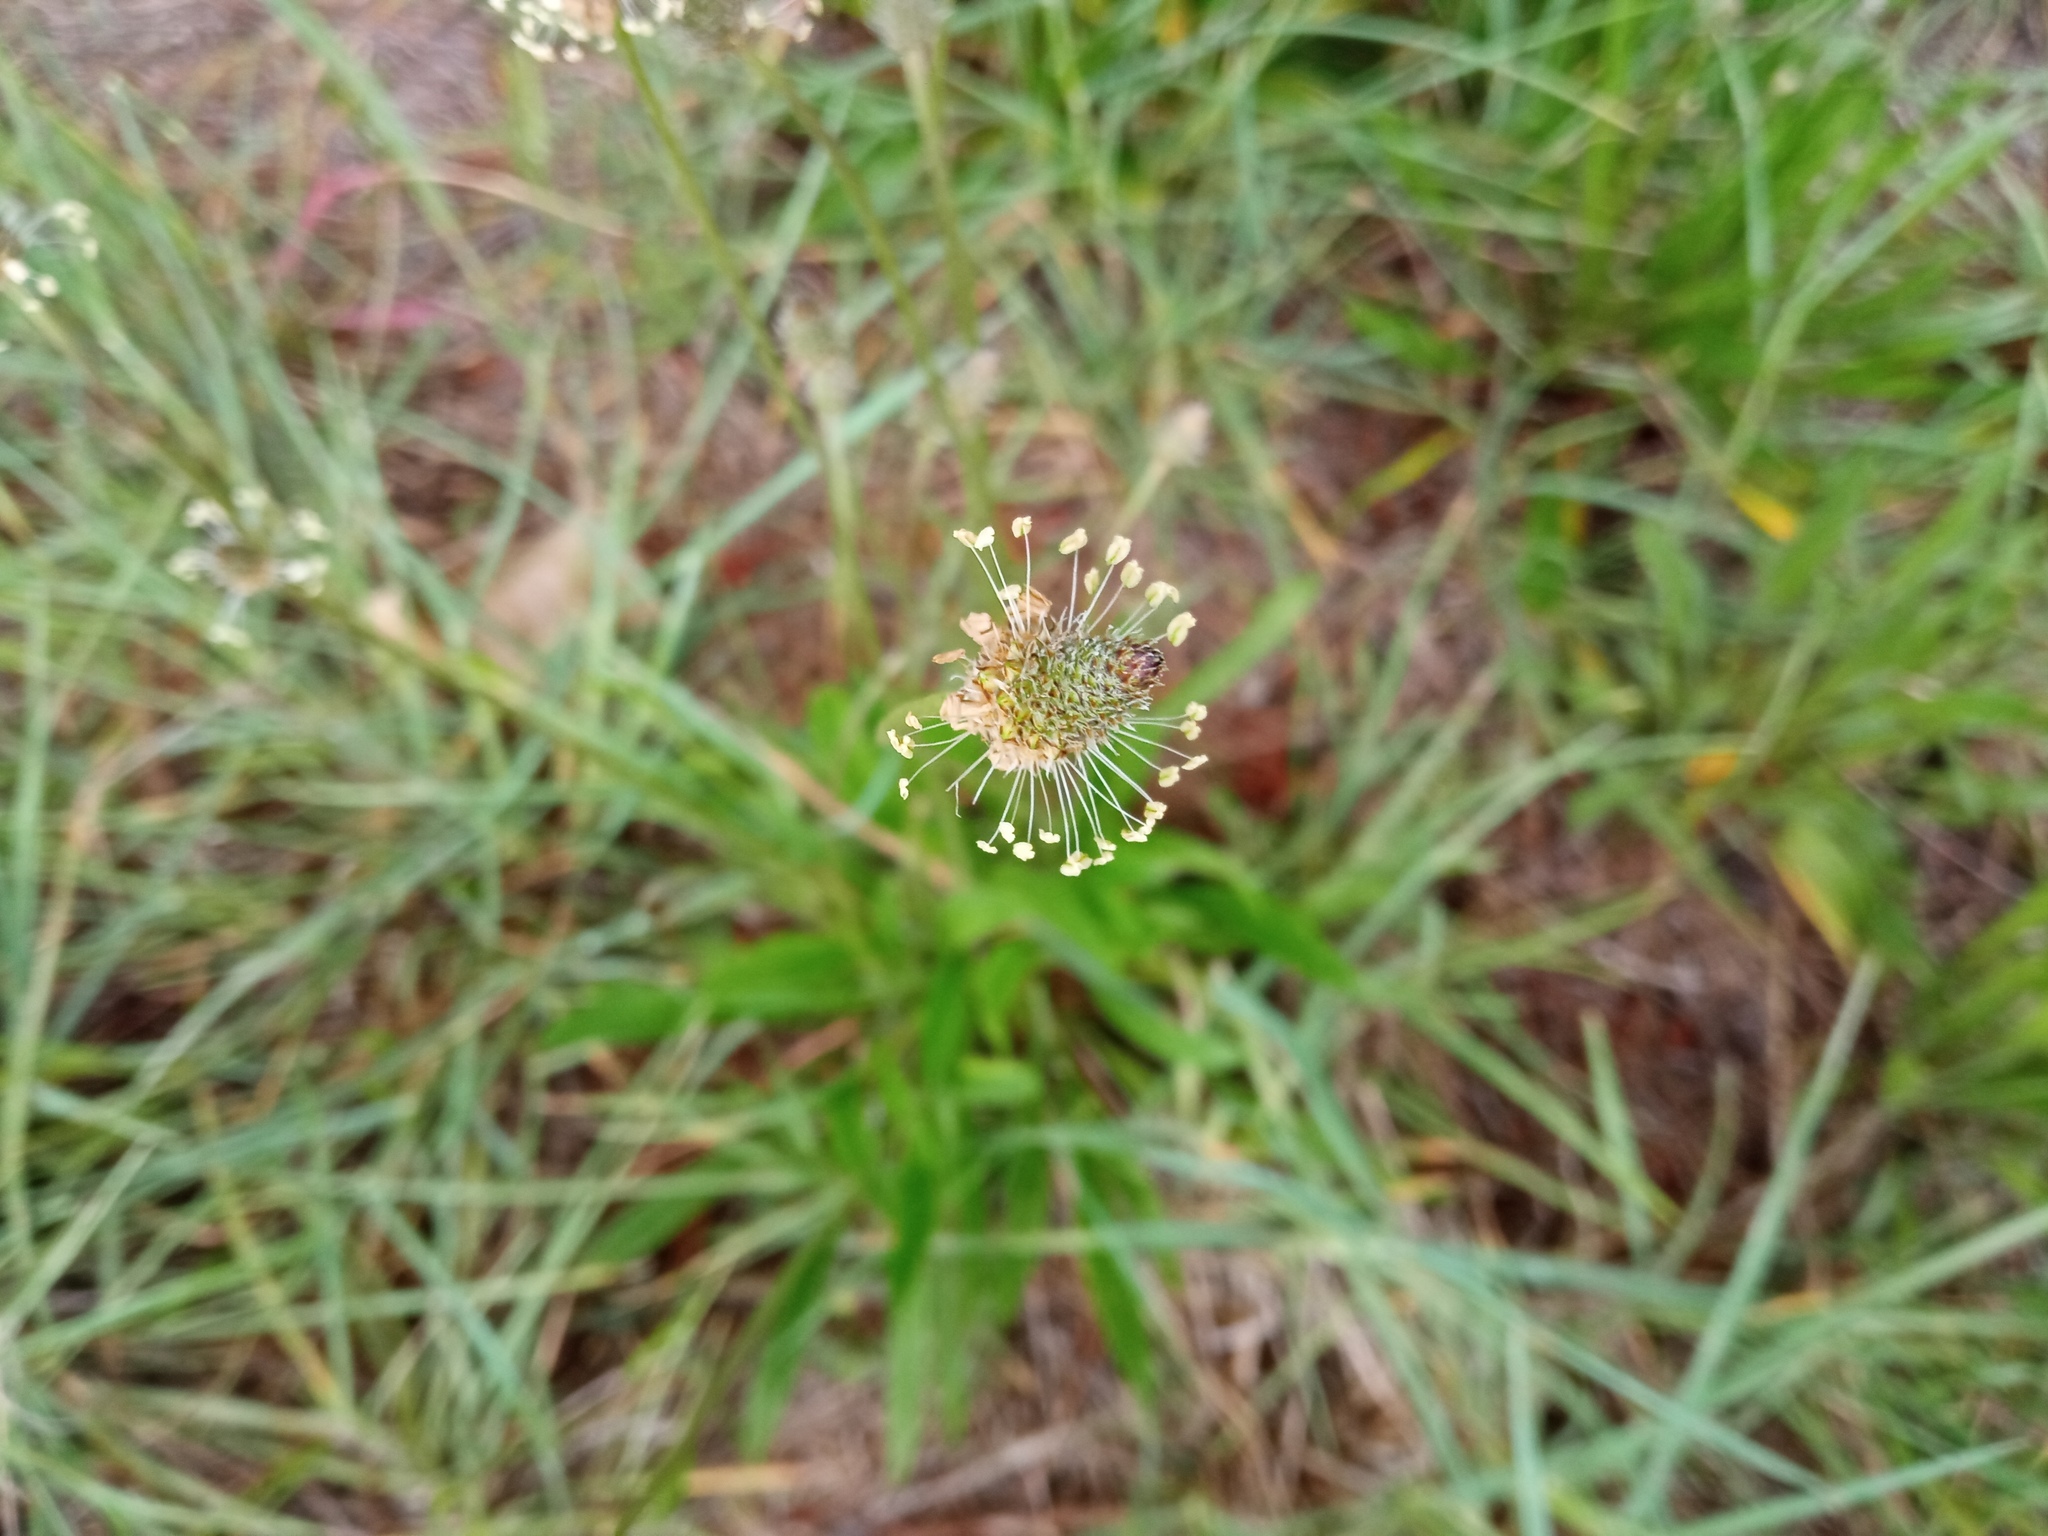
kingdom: Plantae
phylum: Tracheophyta
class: Magnoliopsida
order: Lamiales
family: Plantaginaceae
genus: Plantago
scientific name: Plantago lanceolata
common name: Ribwort plantain
